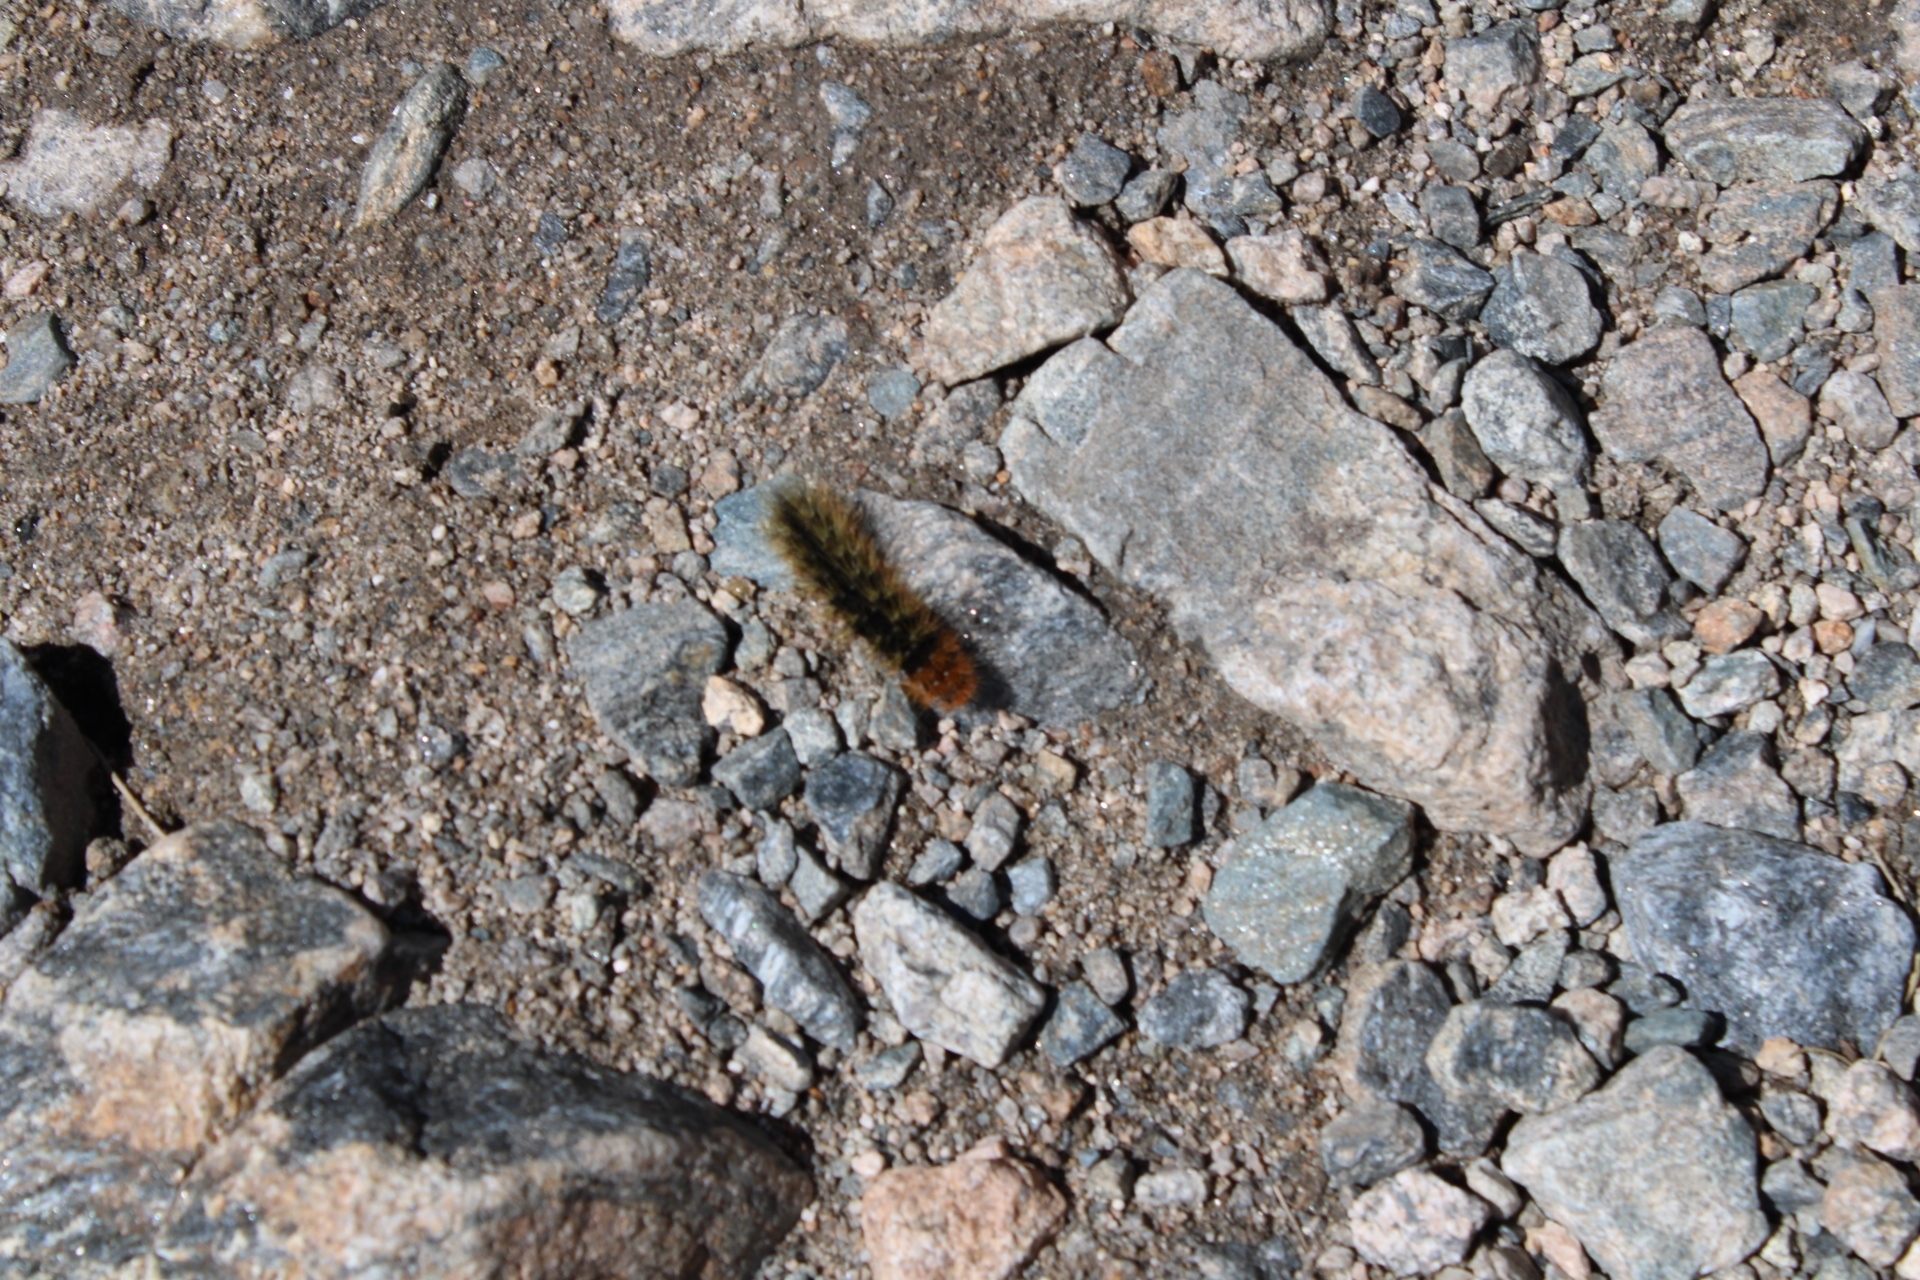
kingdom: Animalia
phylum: Arthropoda
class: Insecta
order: Lepidoptera
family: Erebidae
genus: Arctia
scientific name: Arctia caja
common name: Garden tiger
